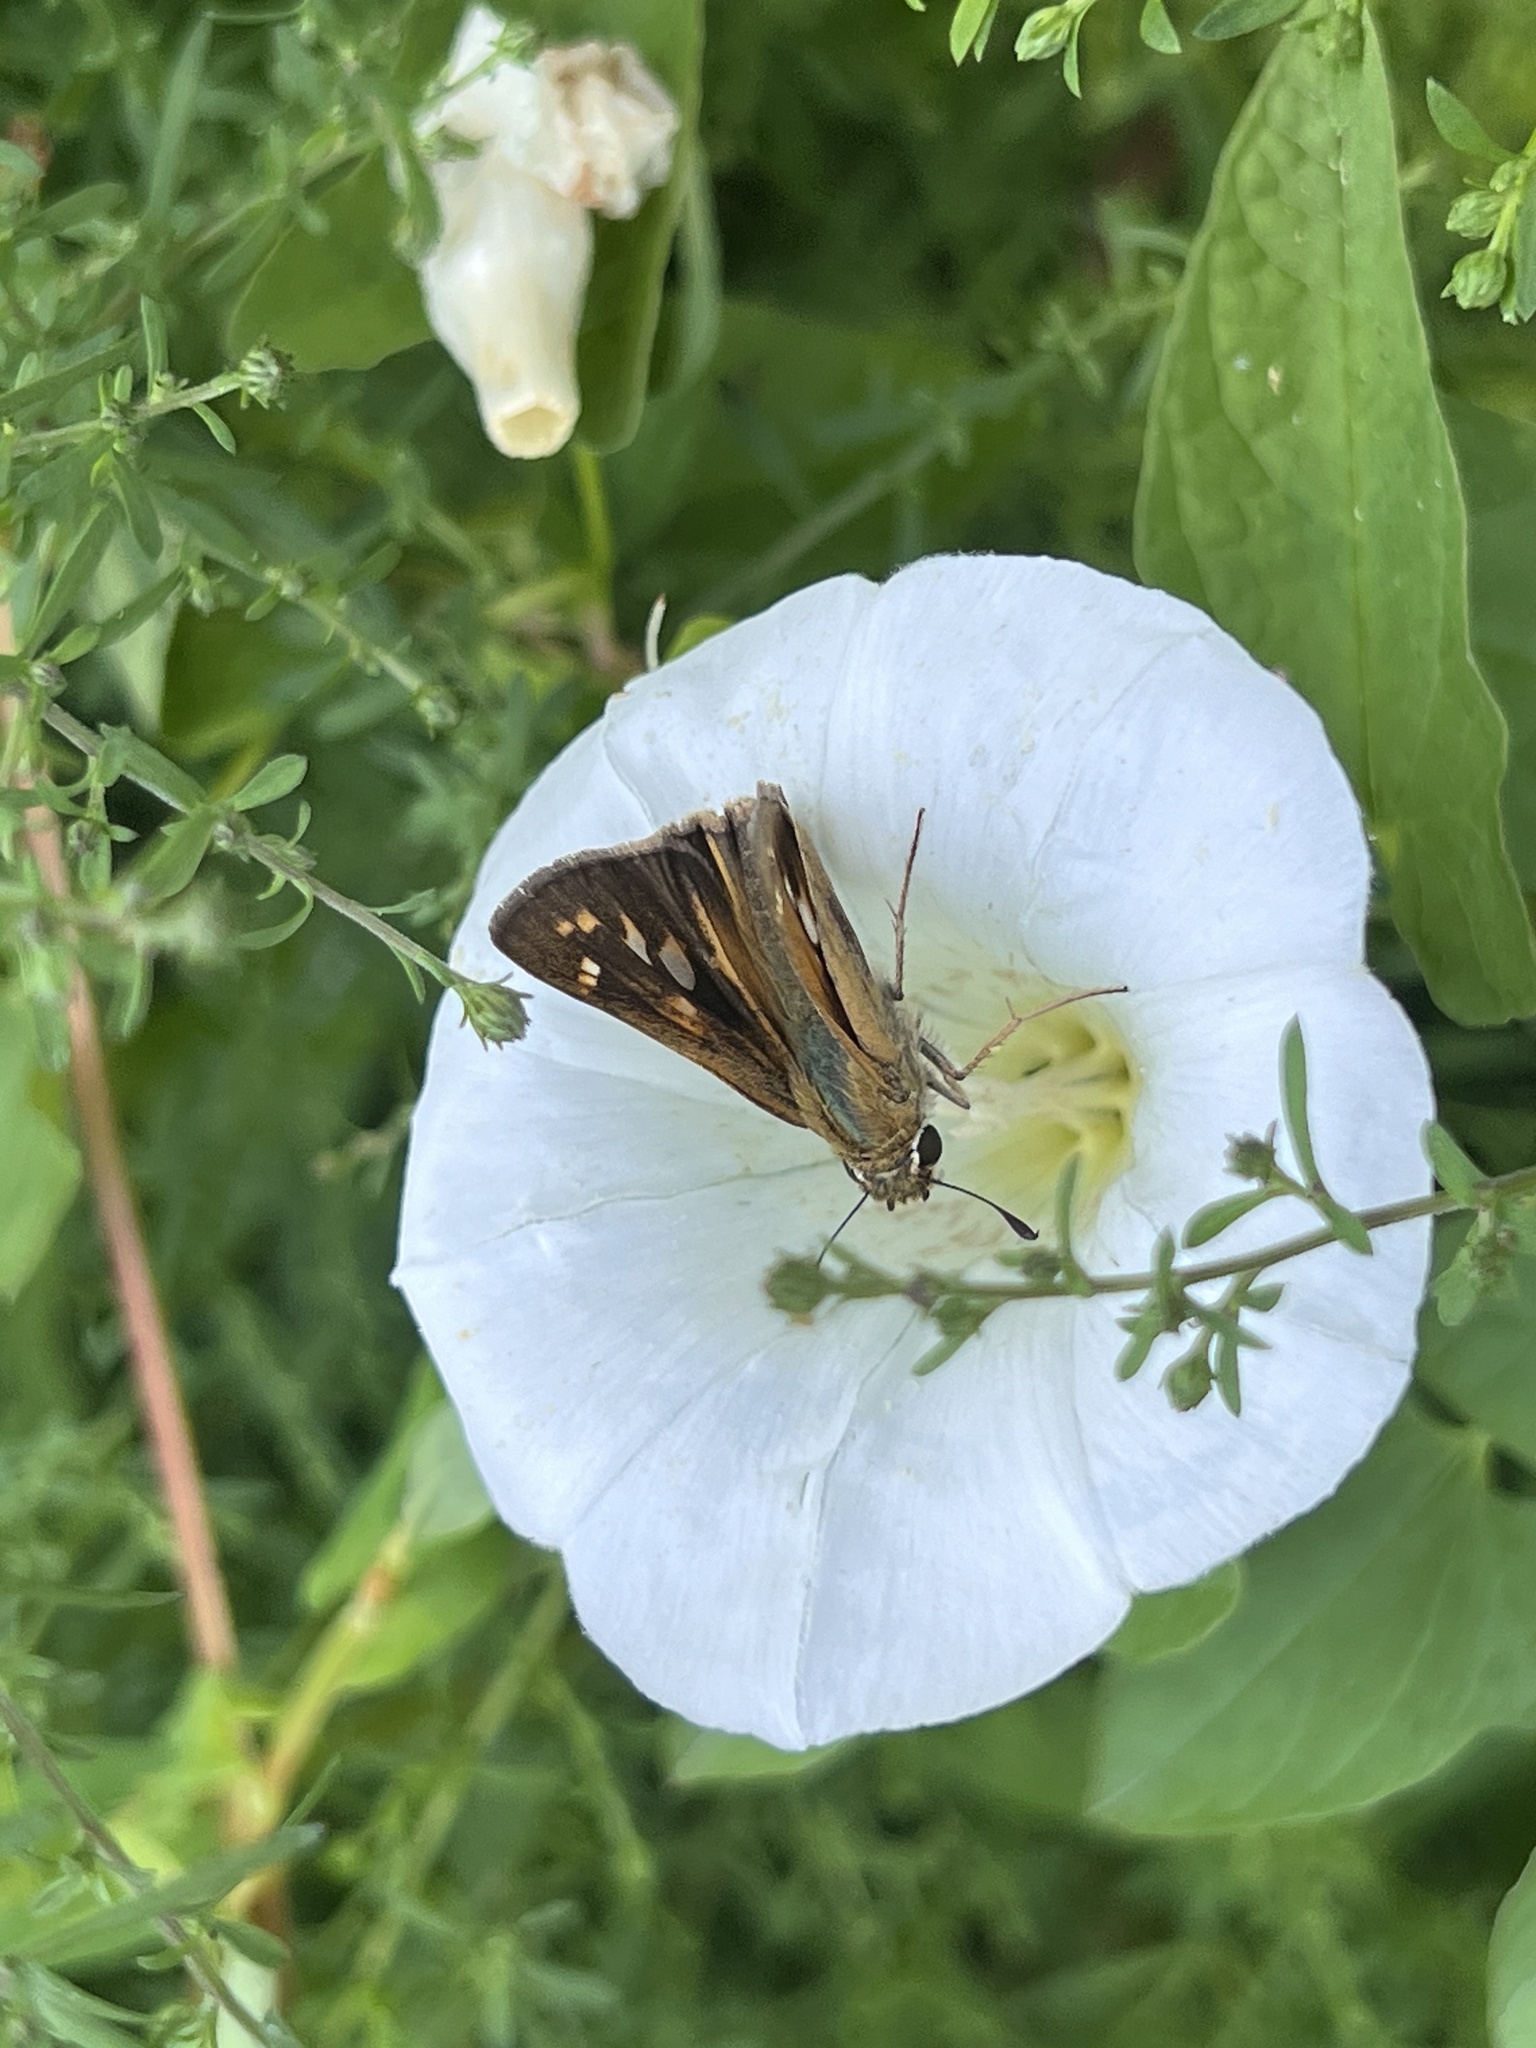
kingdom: Animalia
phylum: Arthropoda
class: Insecta
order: Lepidoptera
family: Hesperiidae
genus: Atalopedes
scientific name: Atalopedes
